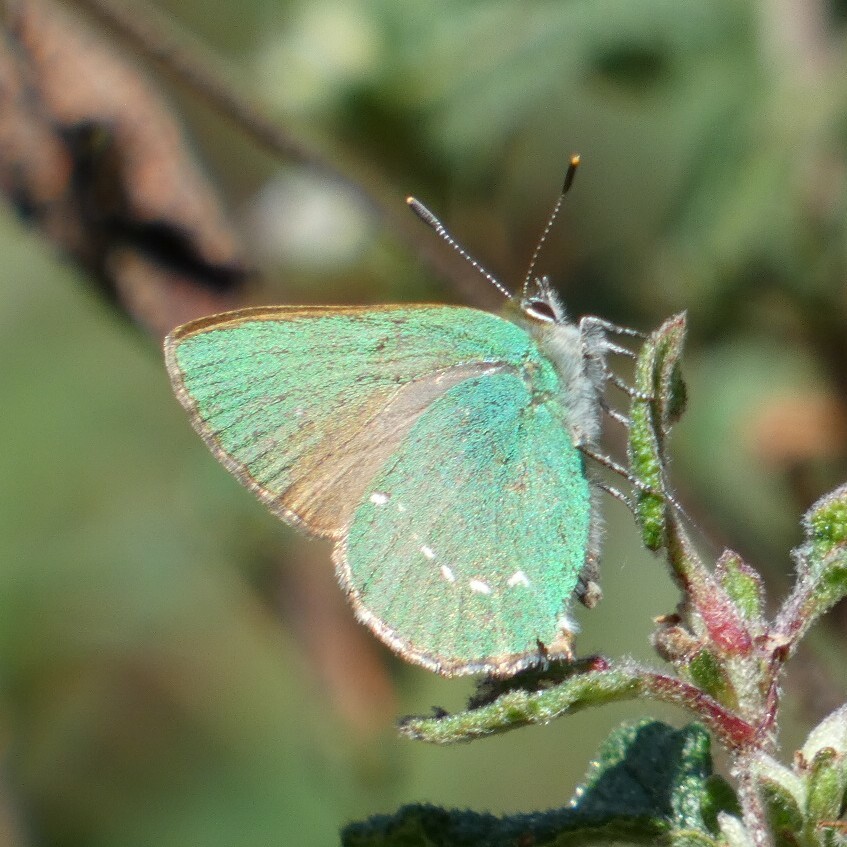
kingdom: Animalia
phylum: Arthropoda
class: Insecta
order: Lepidoptera
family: Lycaenidae
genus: Callophrys
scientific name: Callophrys rubi
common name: Green hairstreak
